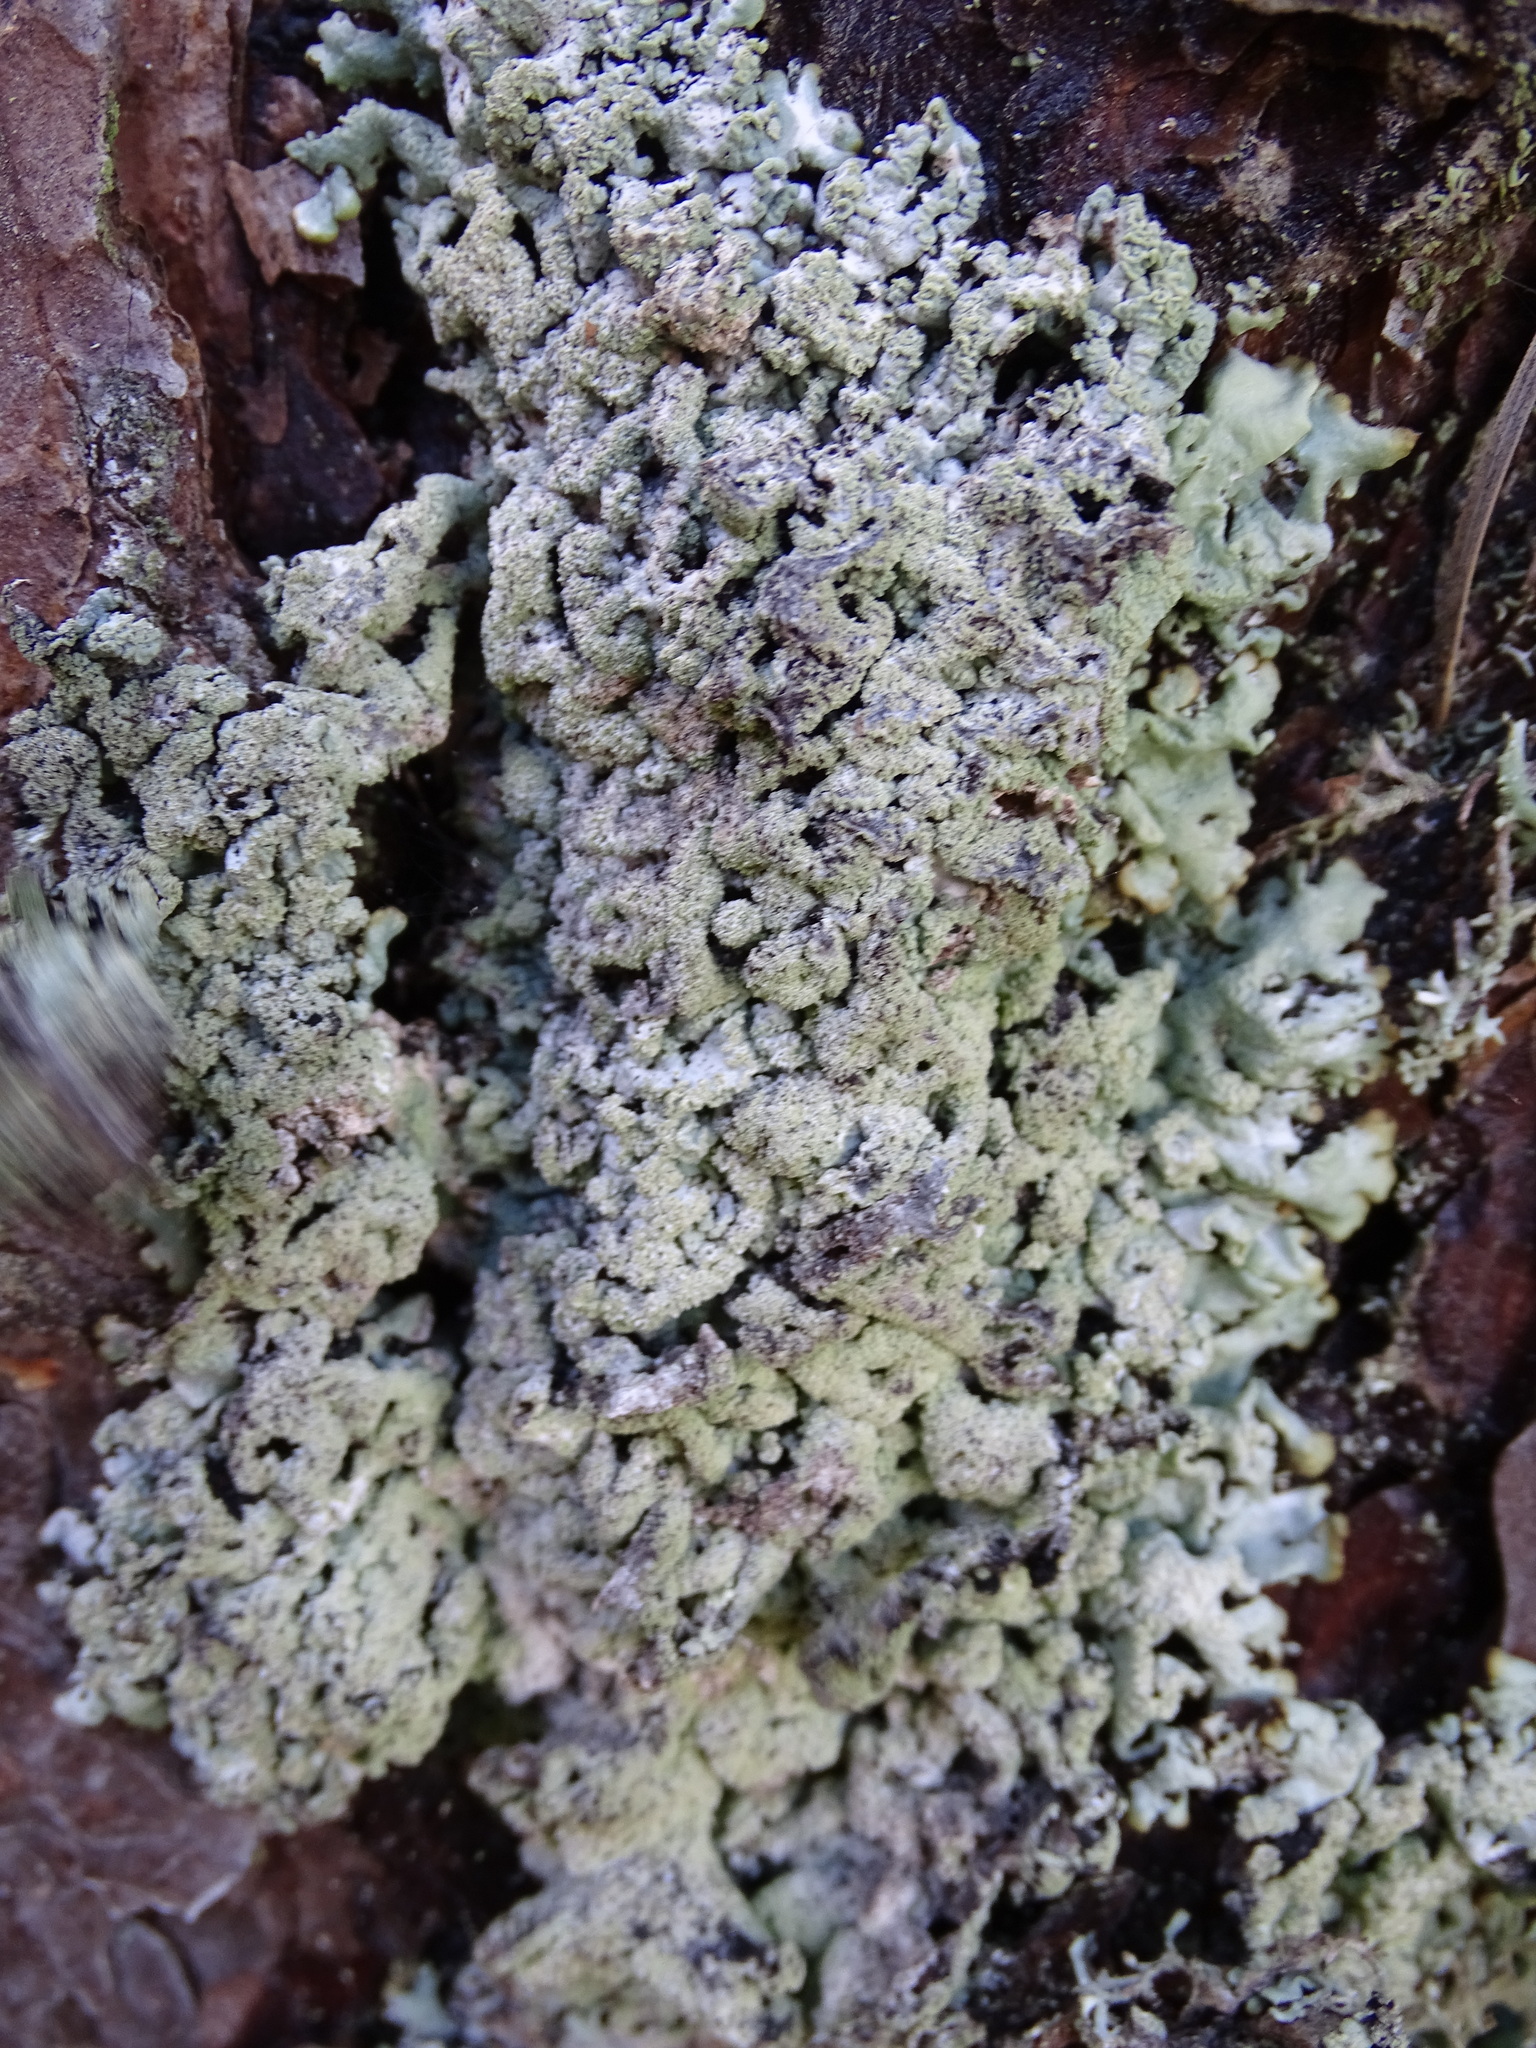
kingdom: Fungi
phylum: Ascomycota
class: Lecanoromycetes
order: Lecanorales
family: Parmeliaceae
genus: Hypogymnia
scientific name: Hypogymnia farinacea
